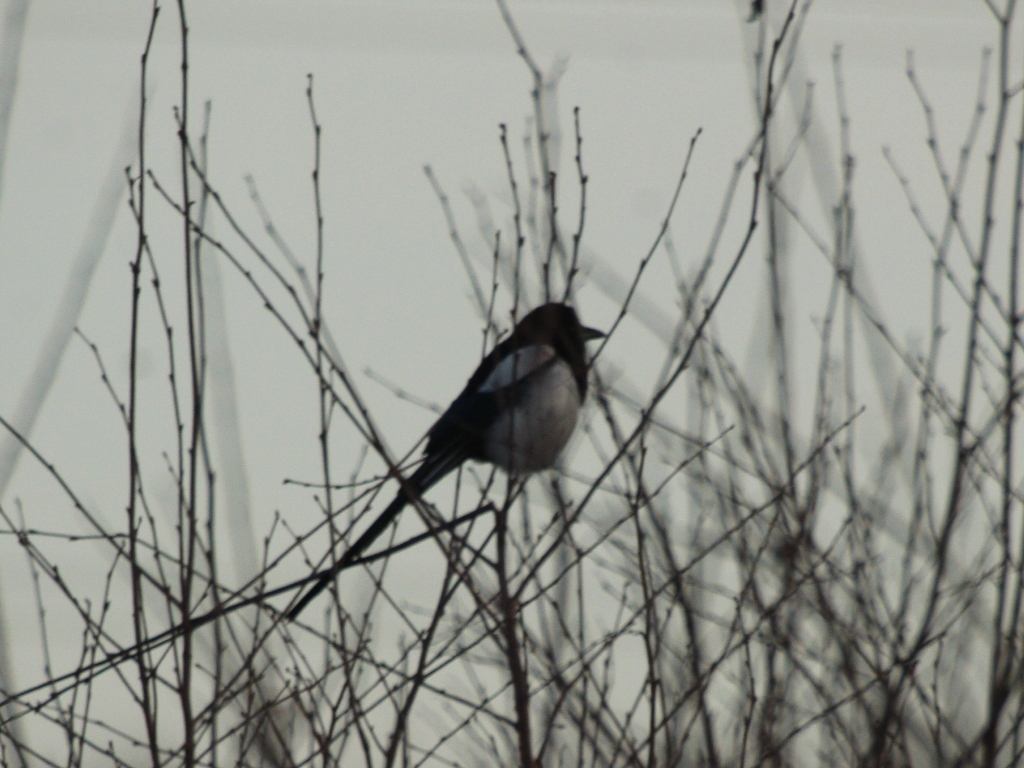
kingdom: Animalia
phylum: Chordata
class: Aves
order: Passeriformes
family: Corvidae
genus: Pica
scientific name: Pica pica
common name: Eurasian magpie
